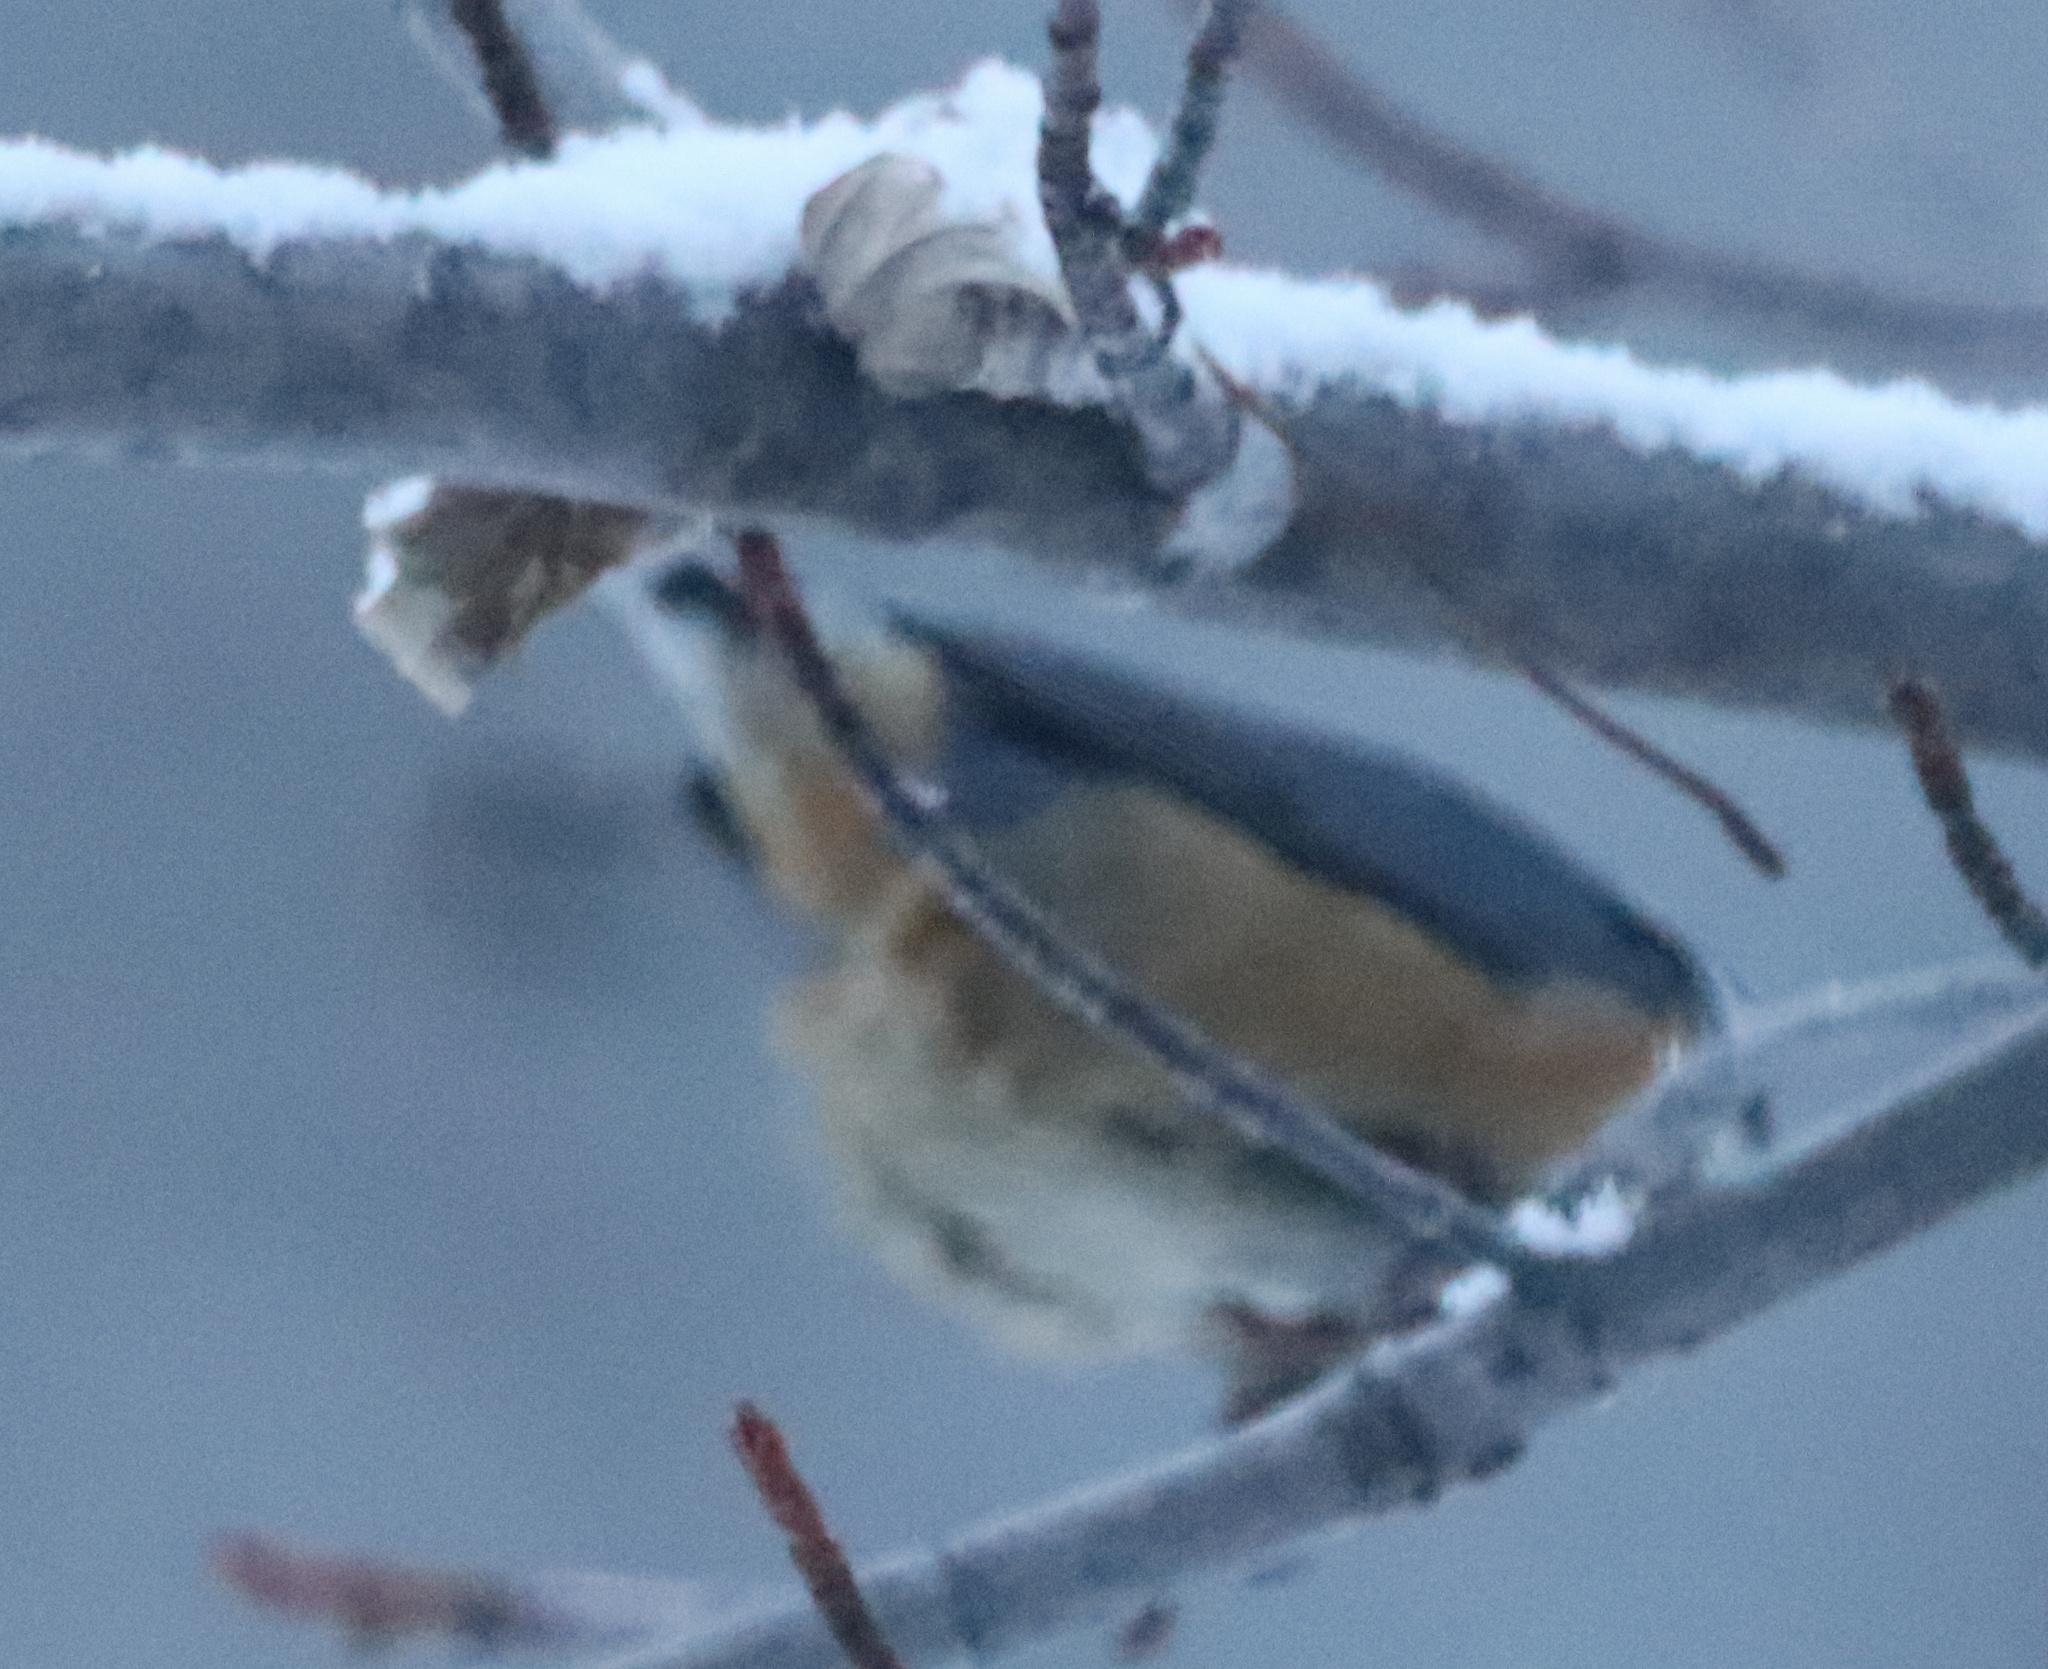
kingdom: Animalia
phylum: Chordata
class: Aves
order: Passeriformes
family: Sittidae
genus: Sitta
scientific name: Sitta canadensis
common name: Red-breasted nuthatch
